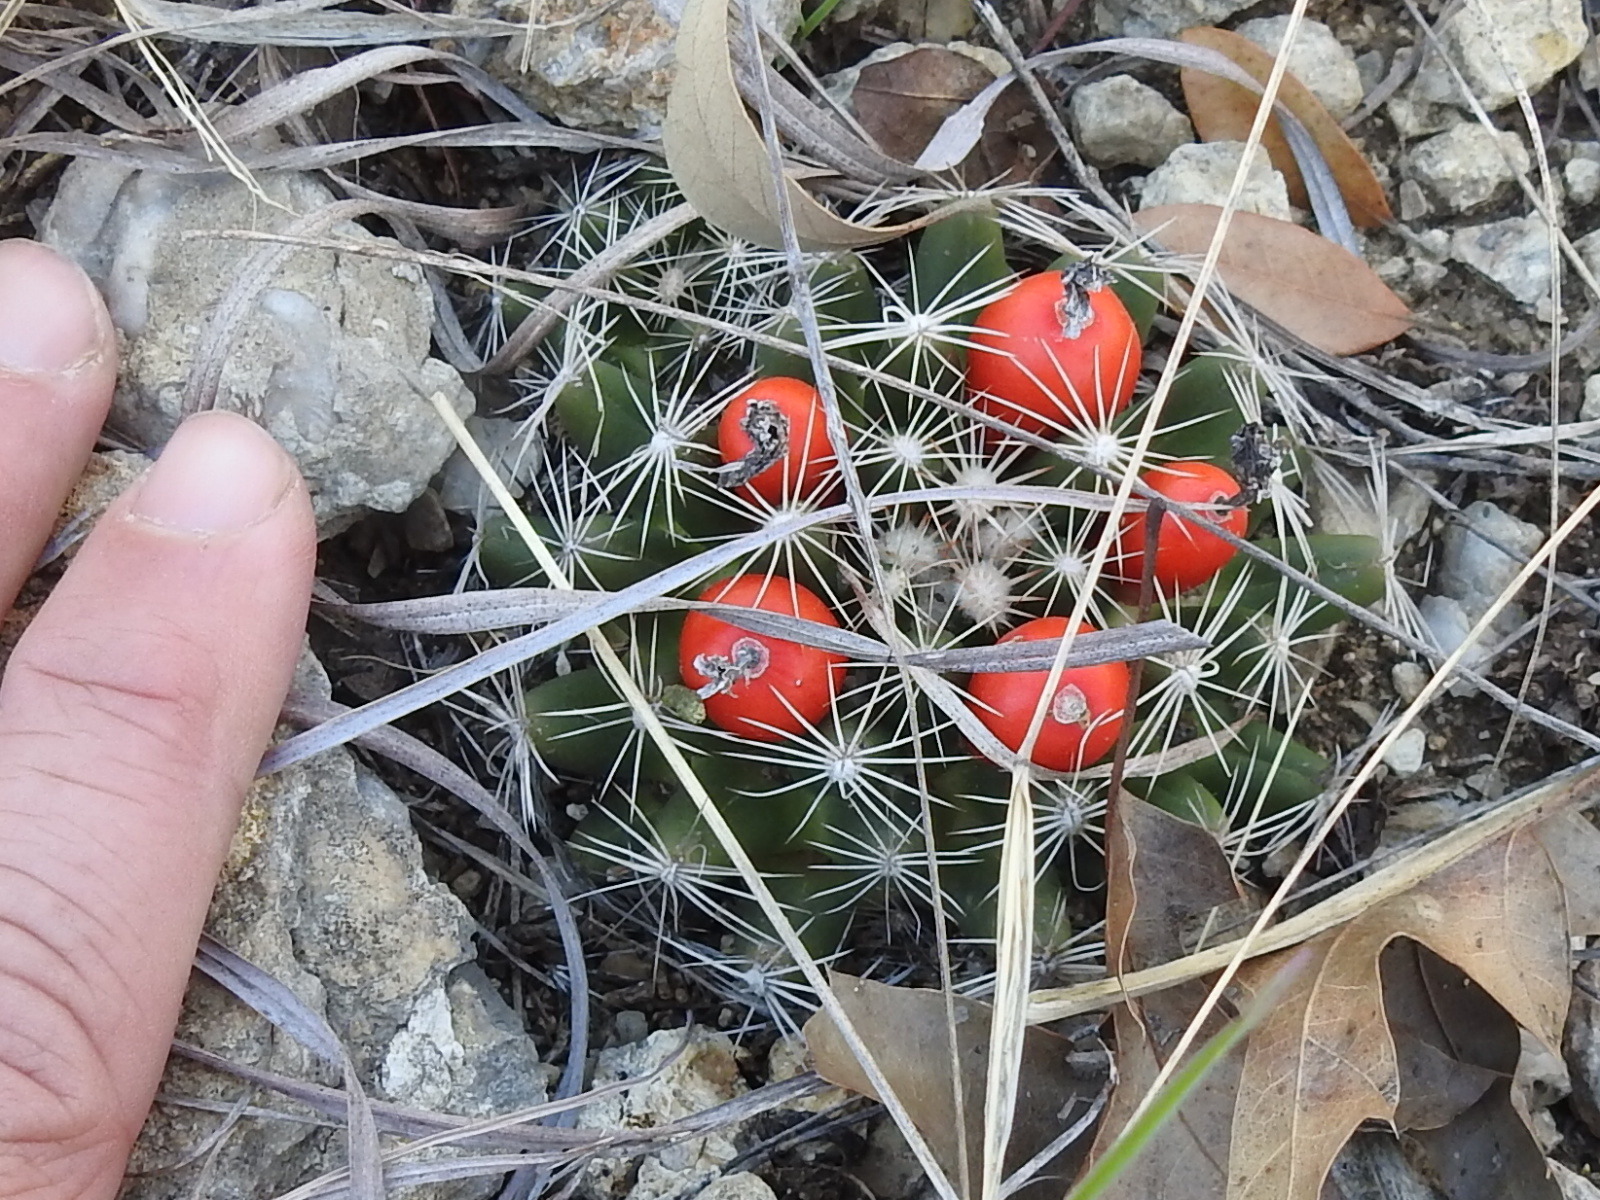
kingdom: Plantae
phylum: Tracheophyta
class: Magnoliopsida
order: Caryophyllales
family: Cactaceae
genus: Pelecyphora
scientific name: Pelecyphora missouriensis
